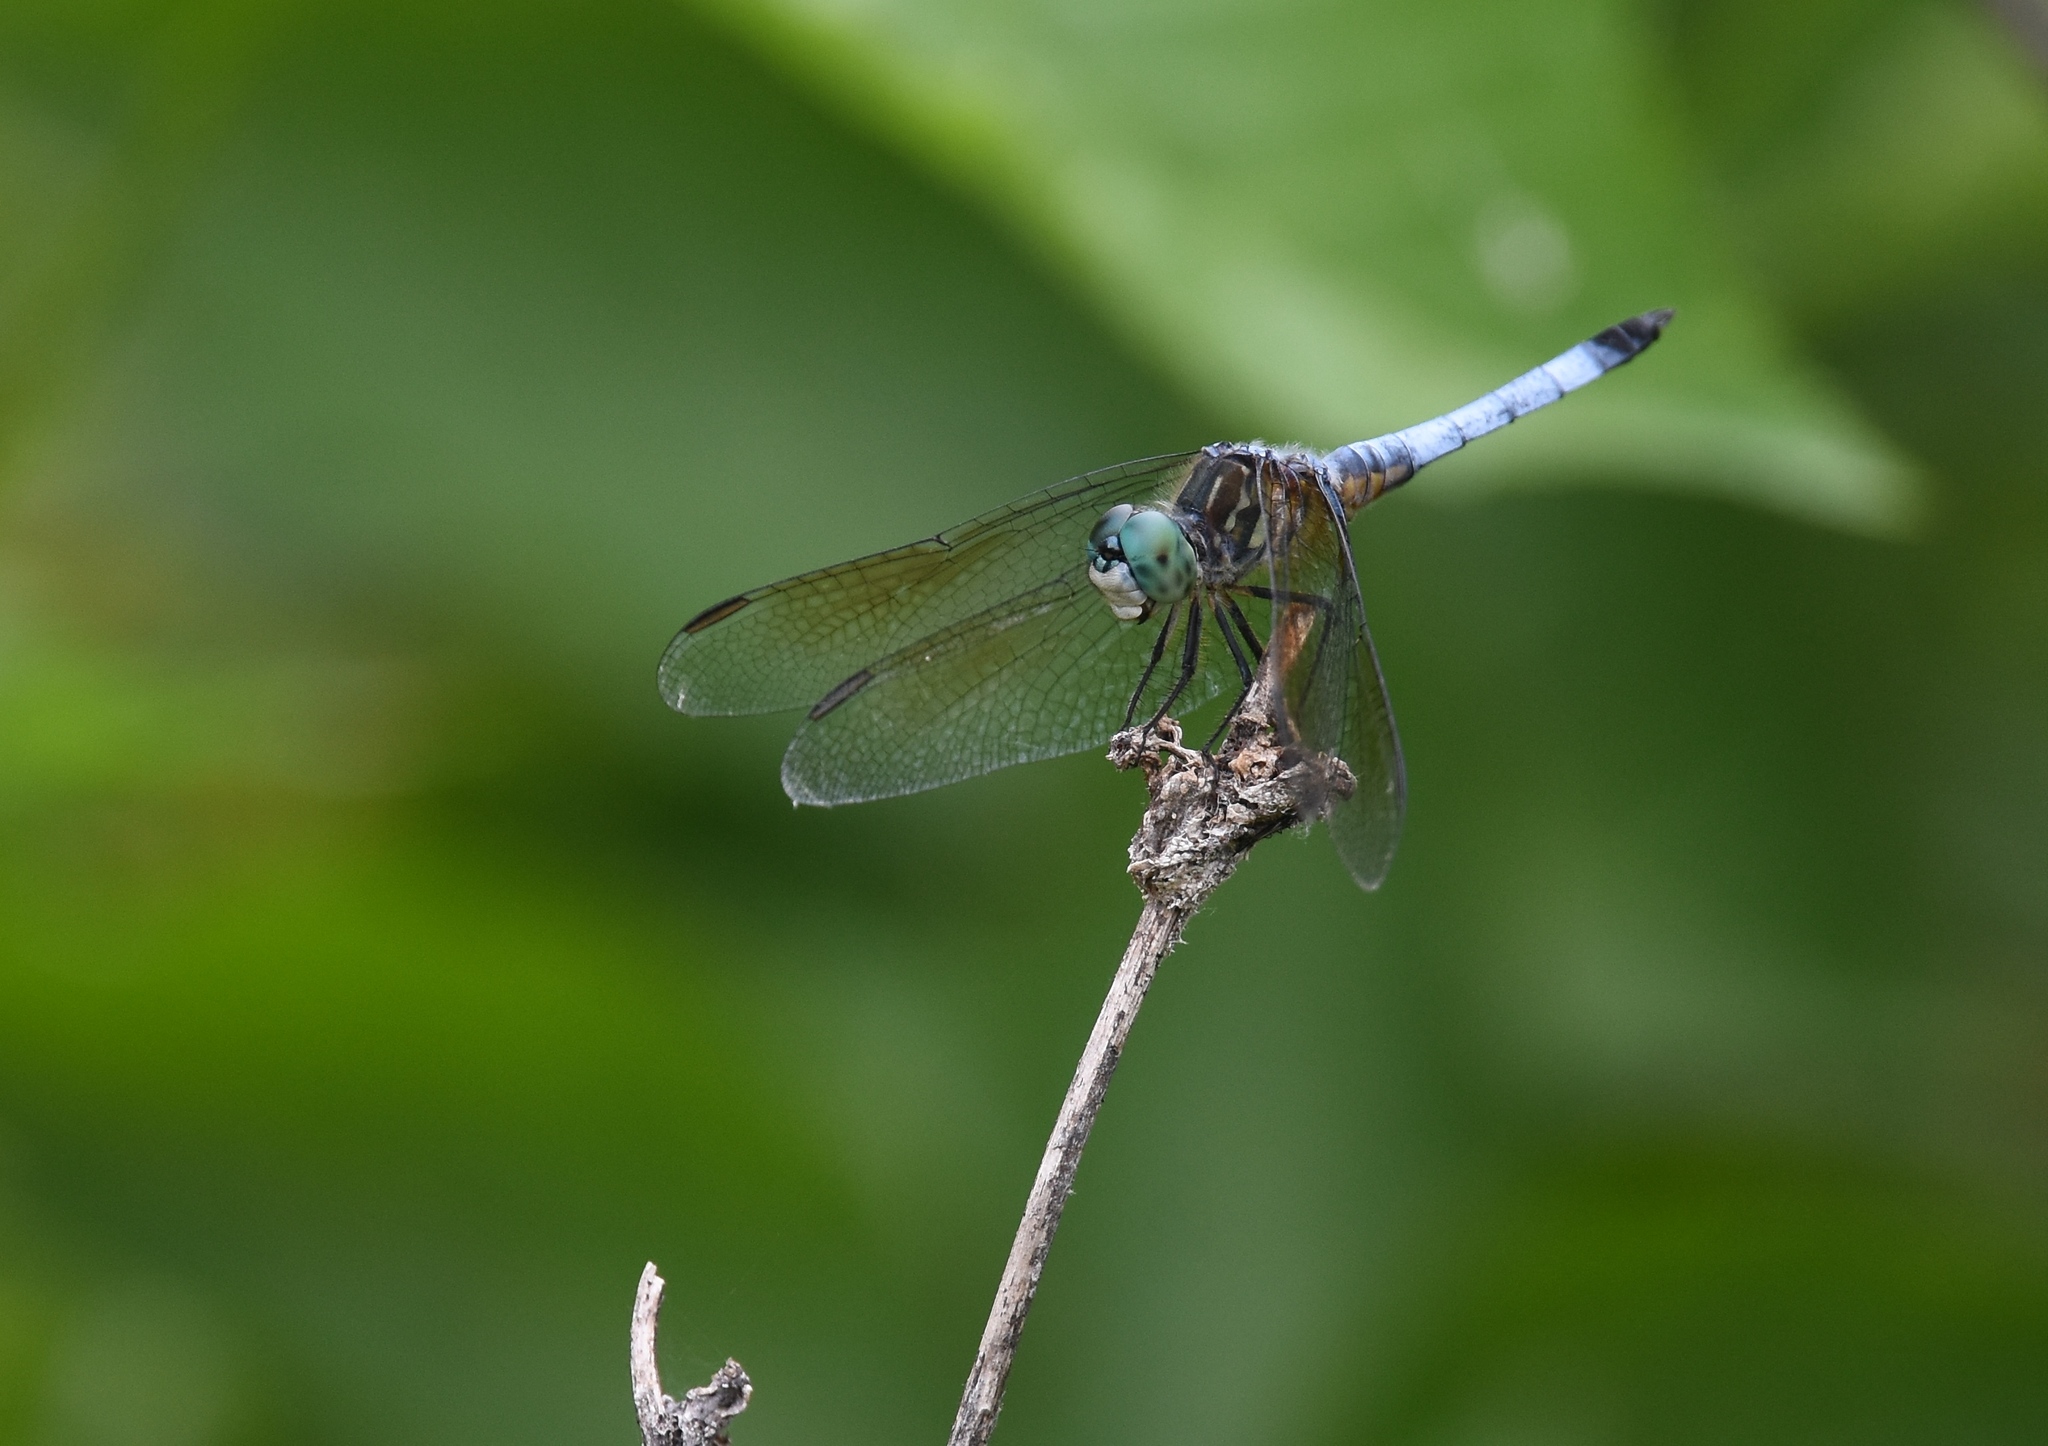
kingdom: Animalia
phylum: Arthropoda
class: Insecta
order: Odonata
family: Libellulidae
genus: Pachydiplax
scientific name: Pachydiplax longipennis
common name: Blue dasher
